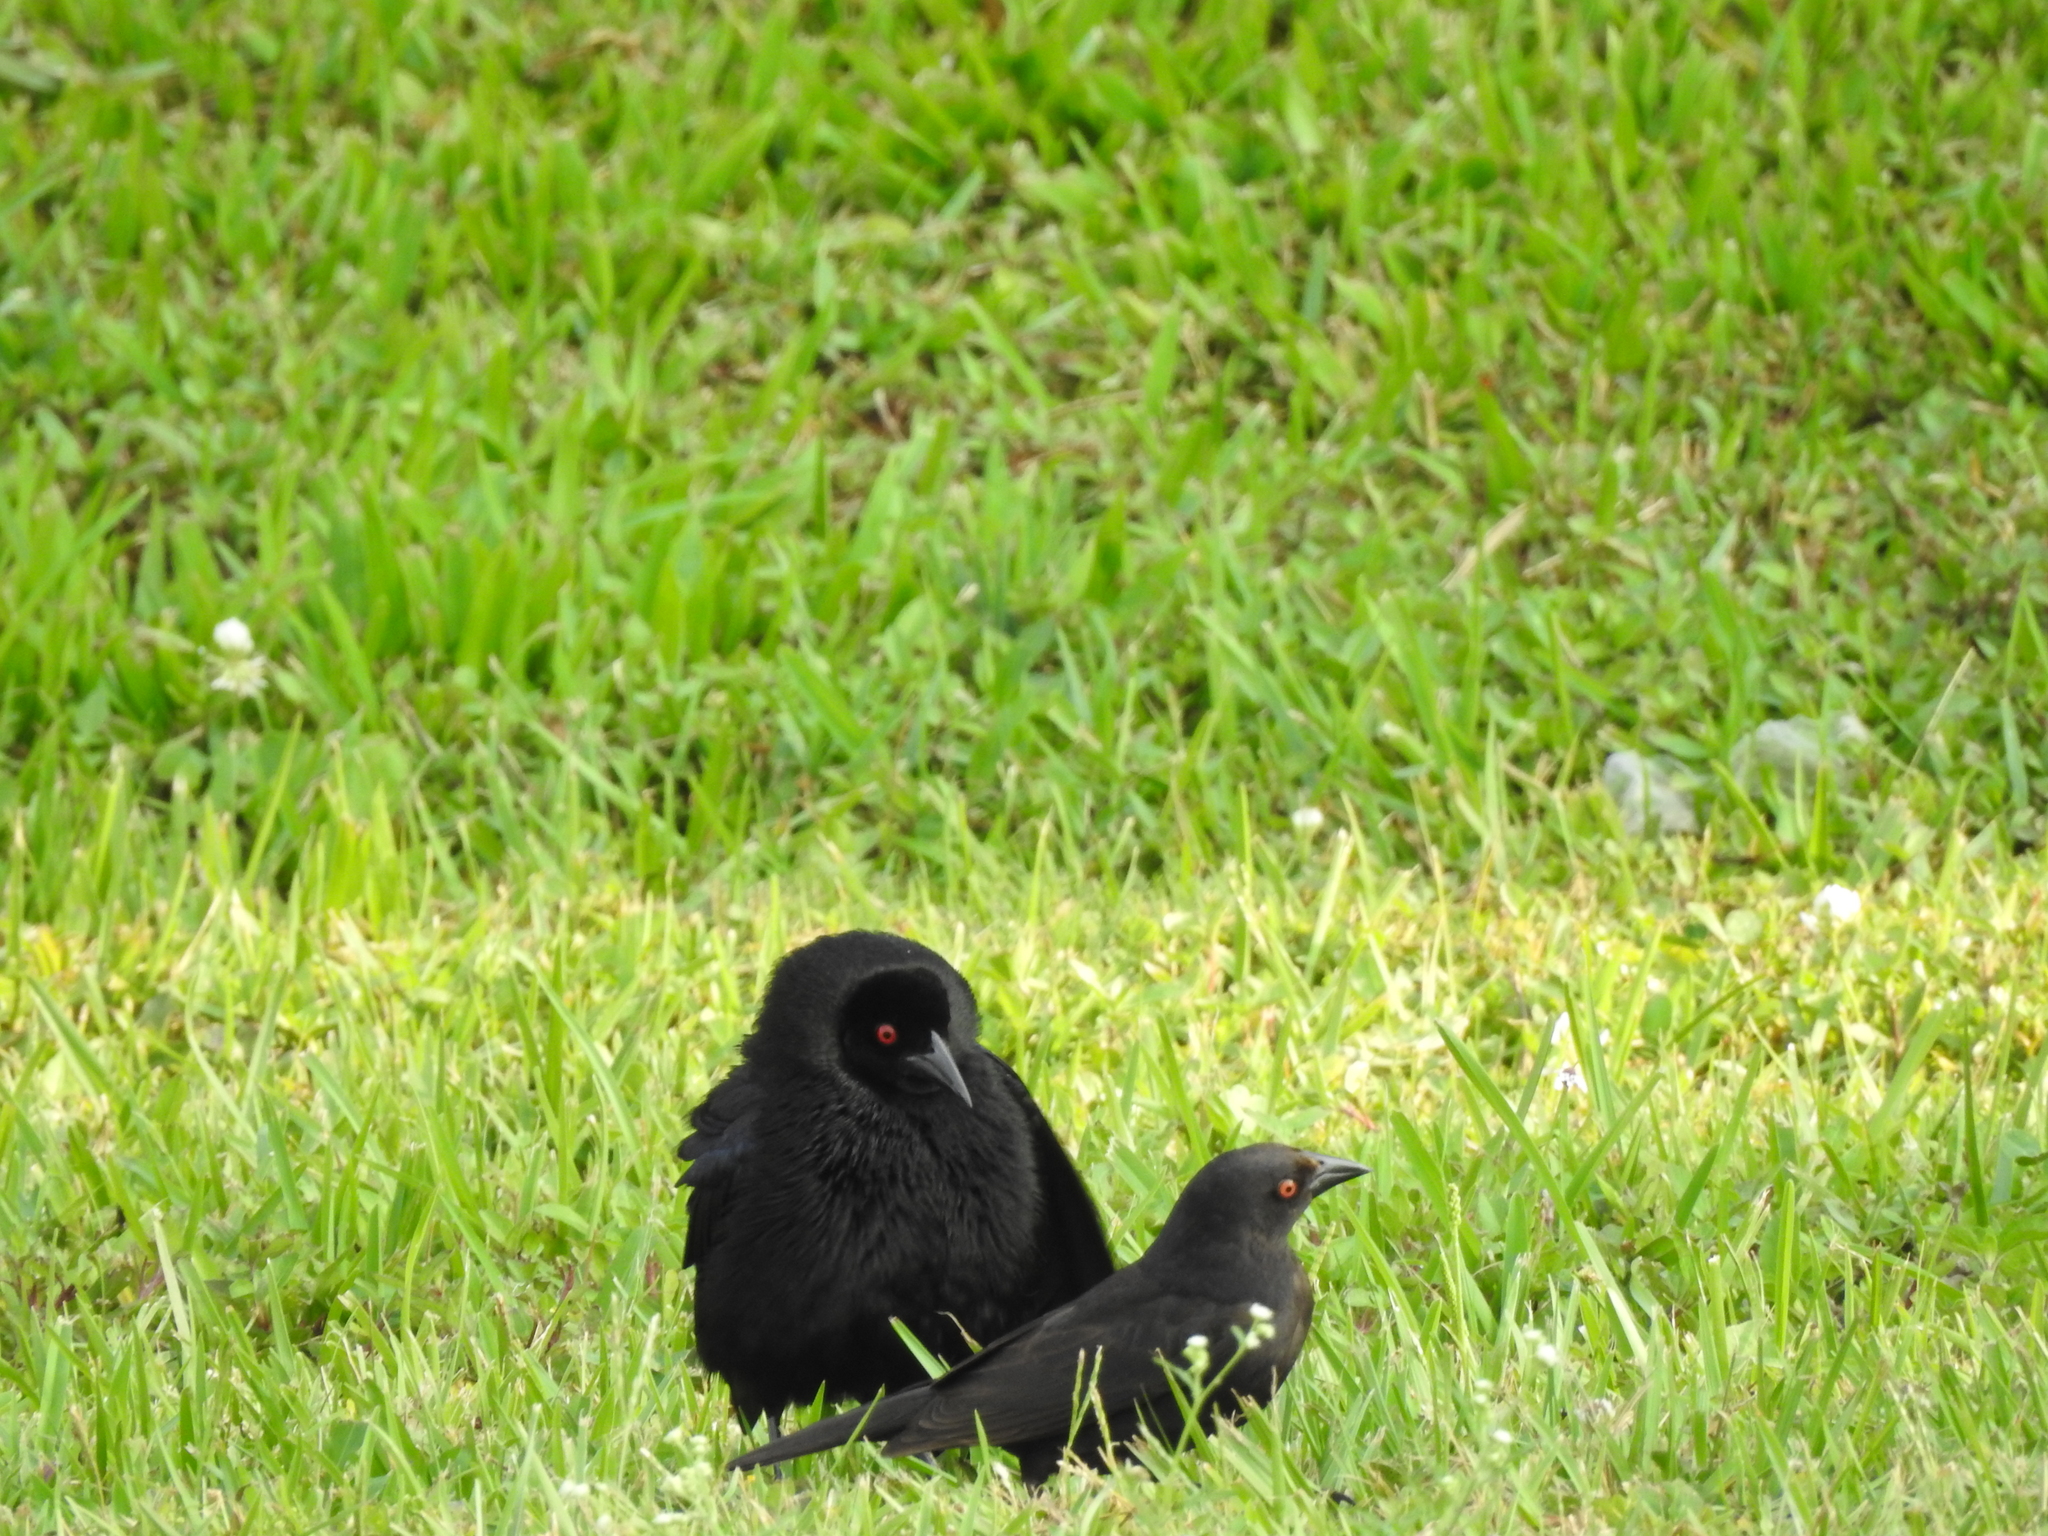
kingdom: Animalia
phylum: Chordata
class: Aves
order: Passeriformes
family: Icteridae
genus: Molothrus
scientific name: Molothrus aeneus
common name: Bronzed cowbird
